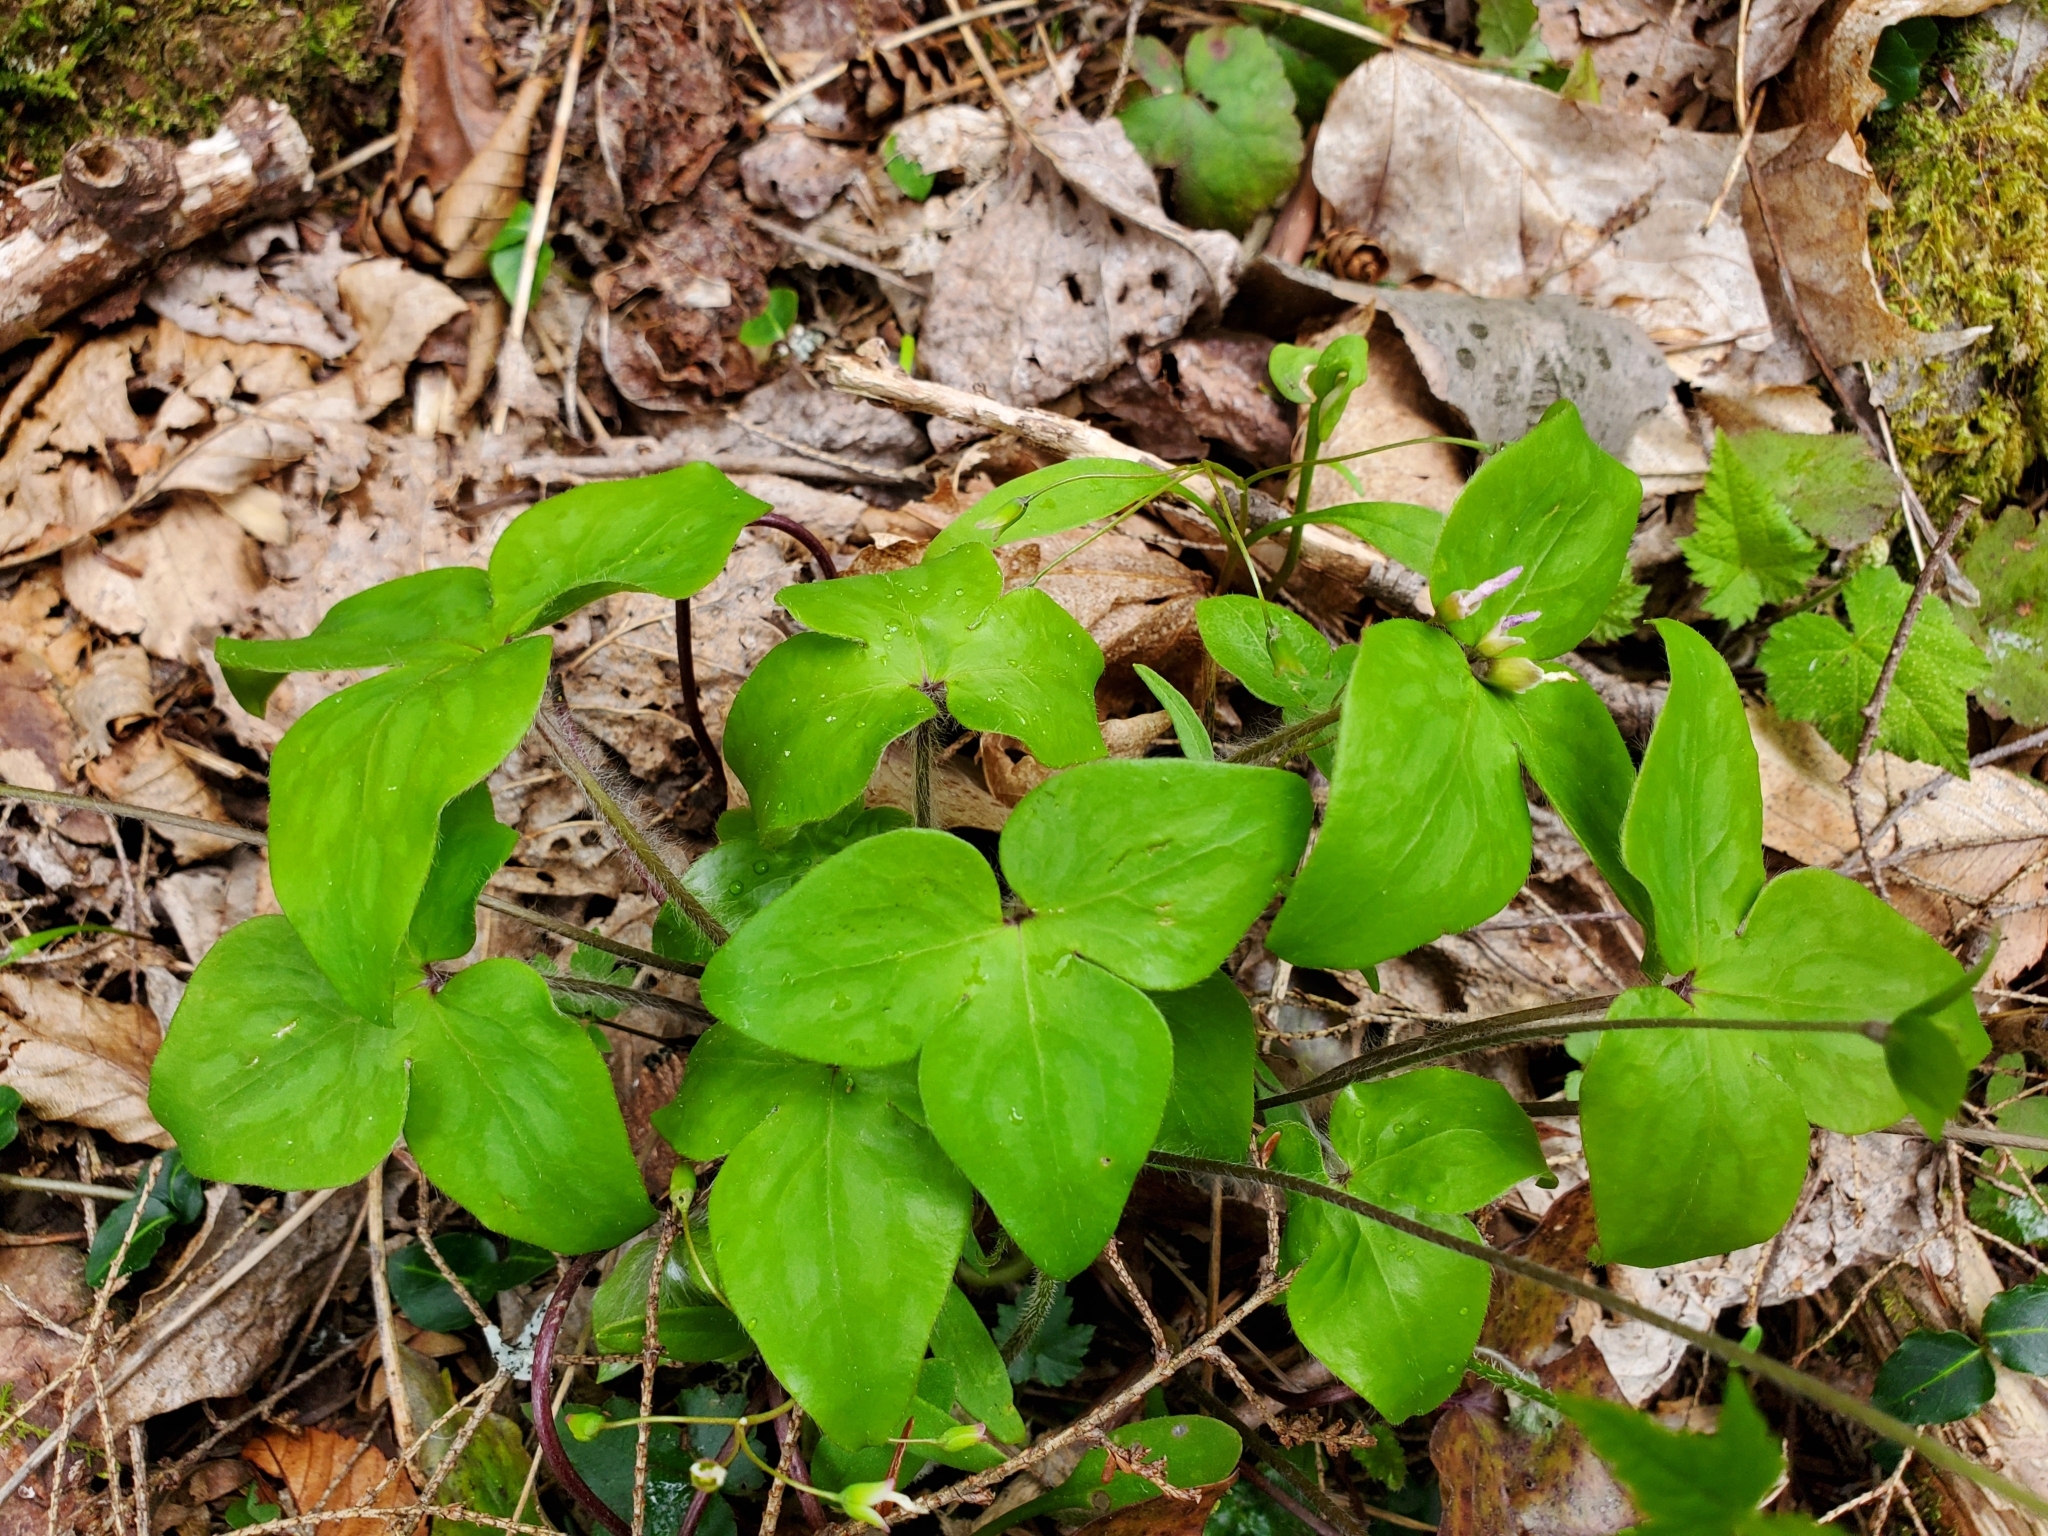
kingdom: Plantae
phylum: Tracheophyta
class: Magnoliopsida
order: Ranunculales
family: Ranunculaceae
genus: Hepatica
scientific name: Hepatica acutiloba
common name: Sharp-lobed hepatica
